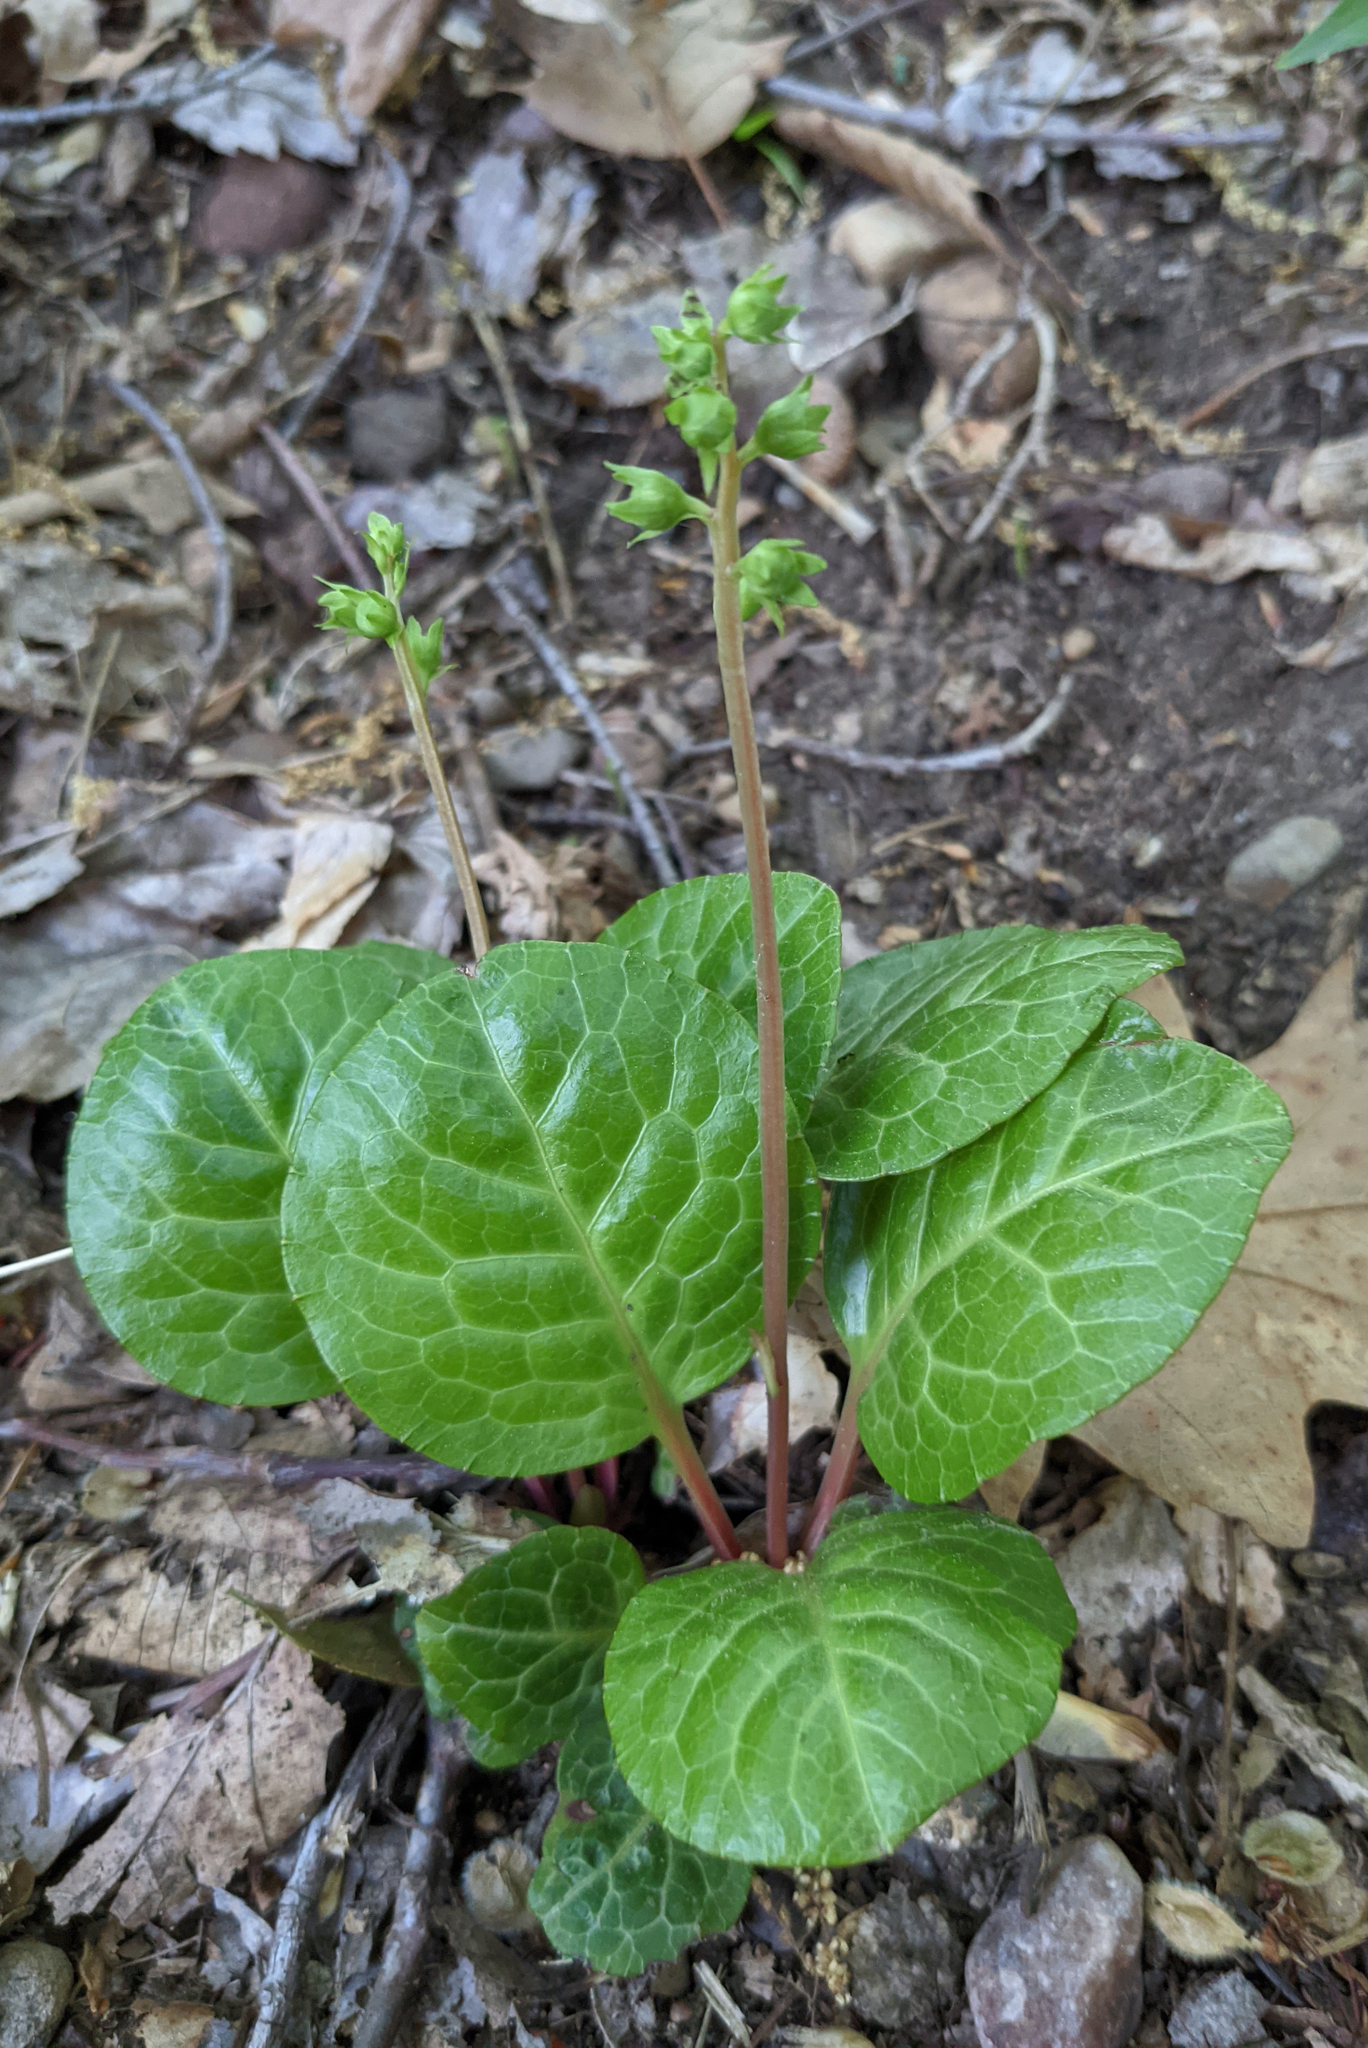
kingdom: Plantae
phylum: Tracheophyta
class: Magnoliopsida
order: Ericales
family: Ericaceae
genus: Pyrola
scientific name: Pyrola americana
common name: American wintergreen
